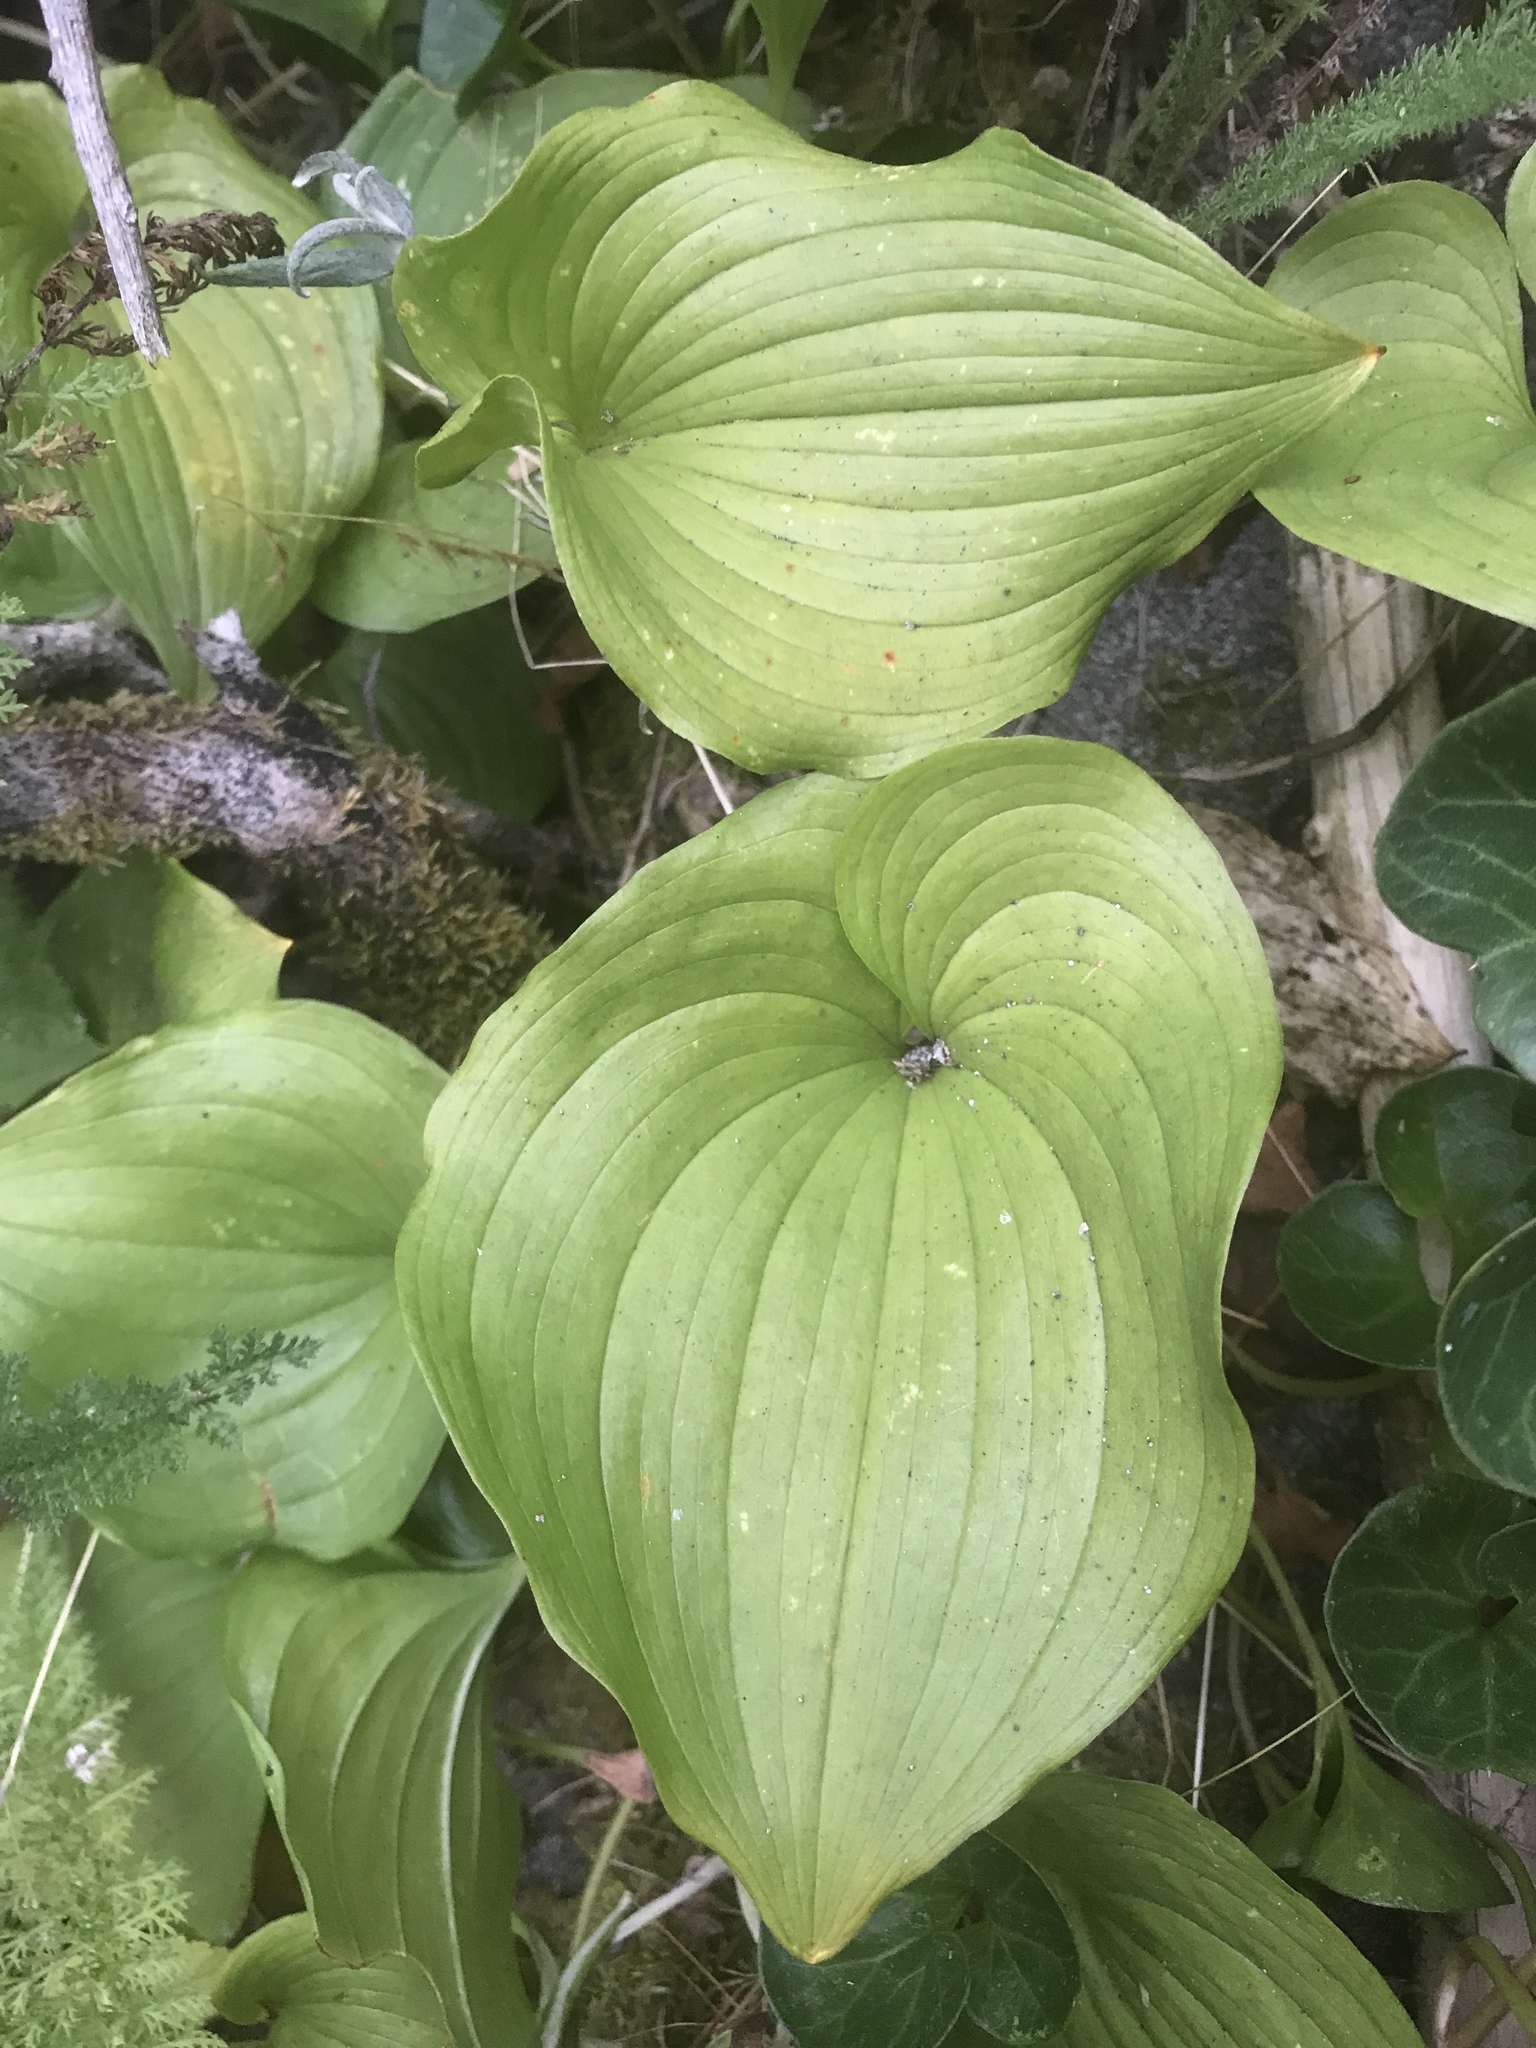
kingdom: Plantae
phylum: Tracheophyta
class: Liliopsida
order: Asparagales
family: Asparagaceae
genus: Maianthemum
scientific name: Maianthemum dilatatum
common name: False lily-of-the-valley
